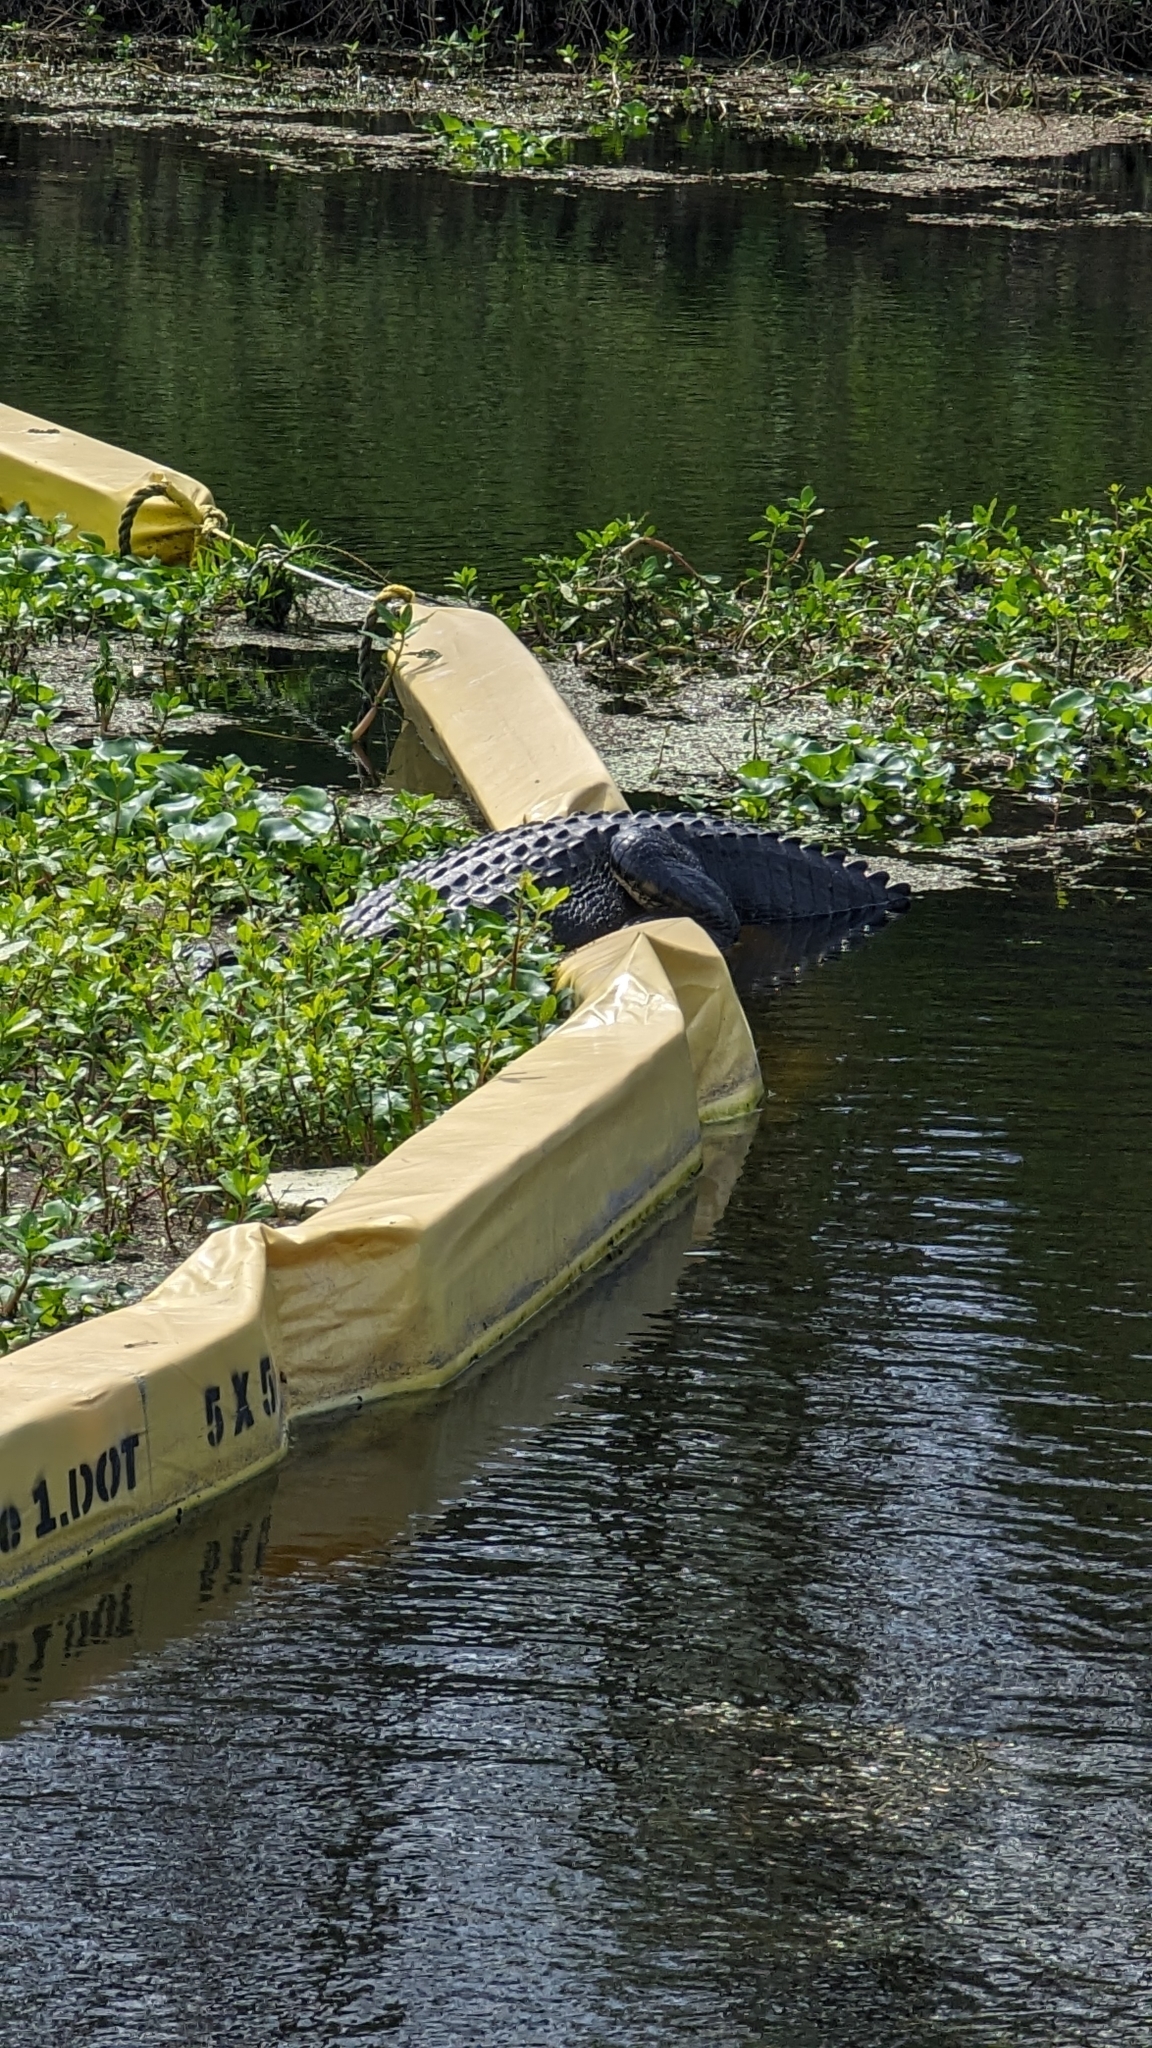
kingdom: Animalia
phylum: Chordata
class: Crocodylia
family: Alligatoridae
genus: Alligator
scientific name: Alligator mississippiensis
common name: American alligator
